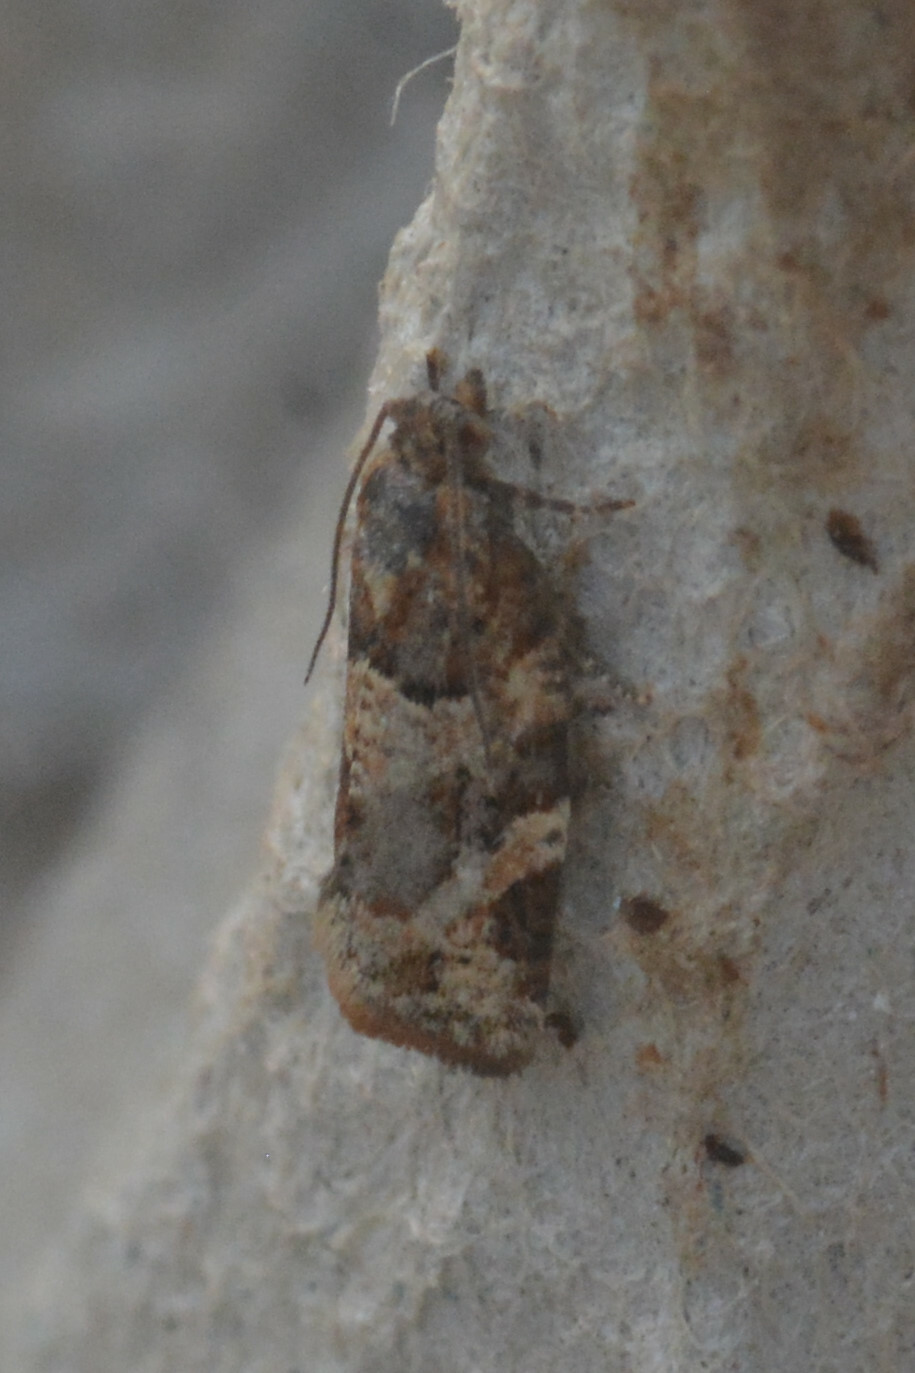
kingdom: Animalia
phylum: Arthropoda
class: Insecta
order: Lepidoptera
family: Tortricidae
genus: Argyrotaenia
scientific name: Argyrotaenia ljungiana
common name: Heather twist
